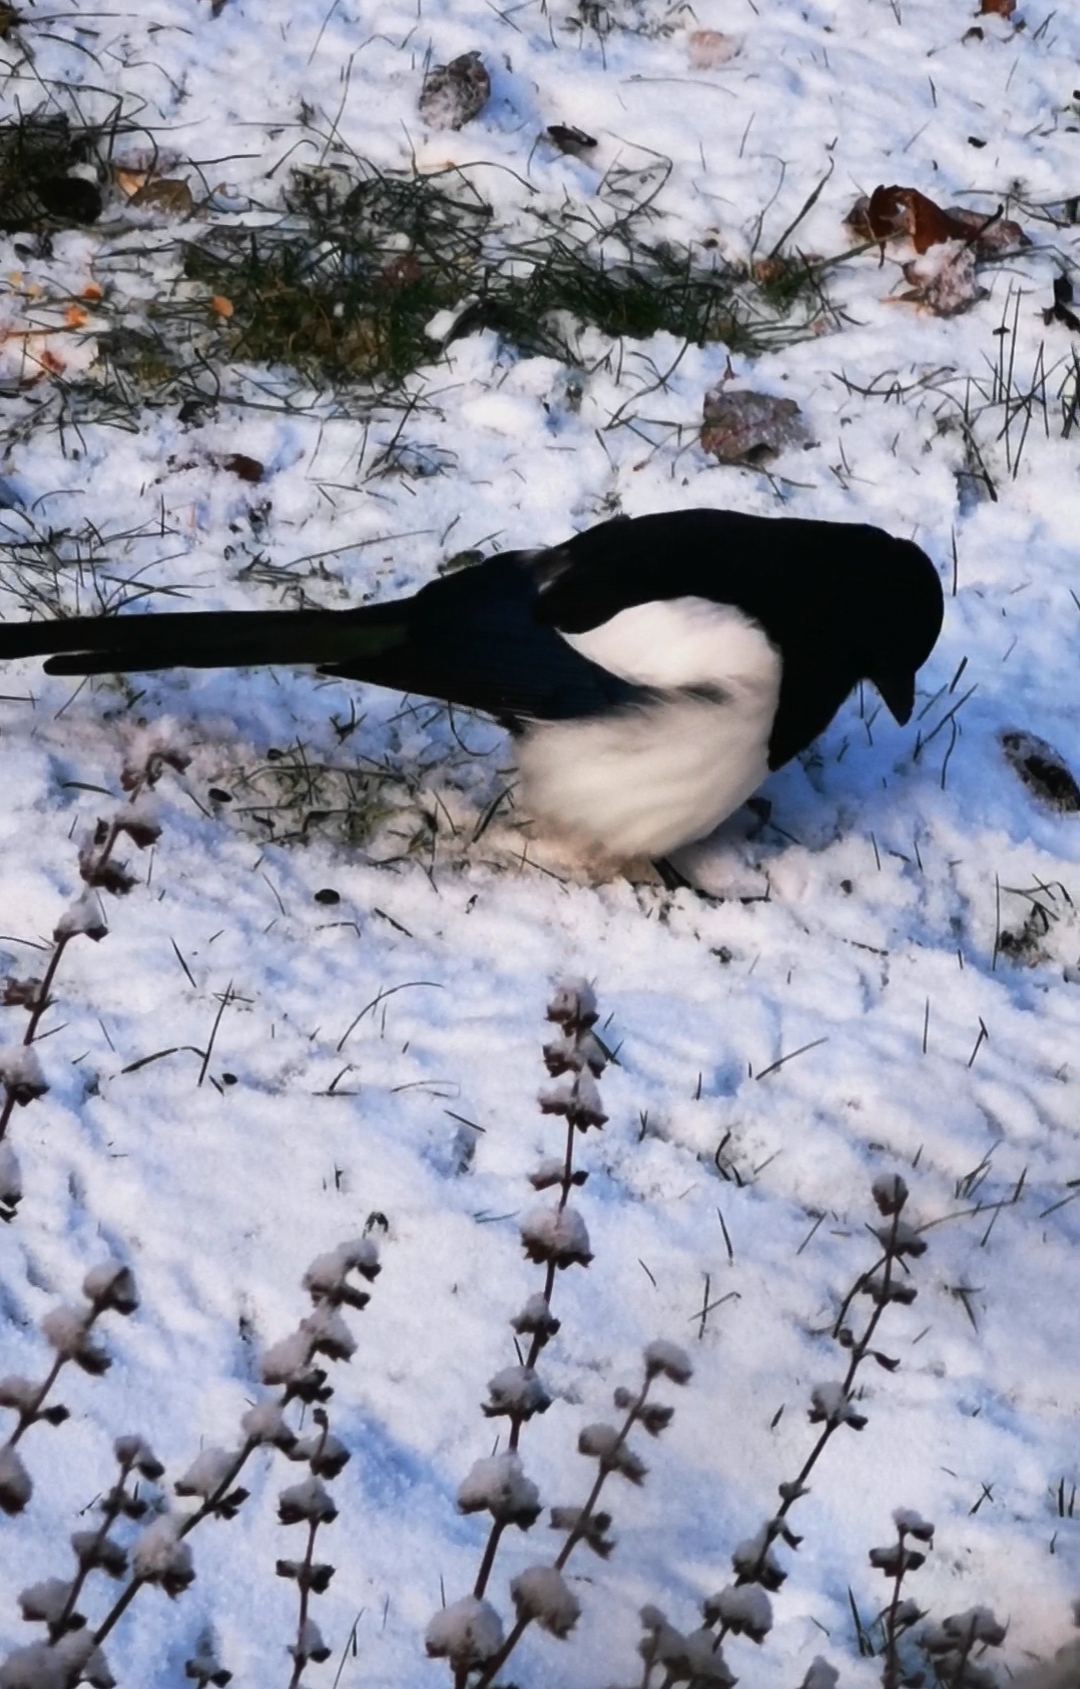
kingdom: Animalia
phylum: Chordata
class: Aves
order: Passeriformes
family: Corvidae
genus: Pica
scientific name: Pica pica
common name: Eurasian magpie
